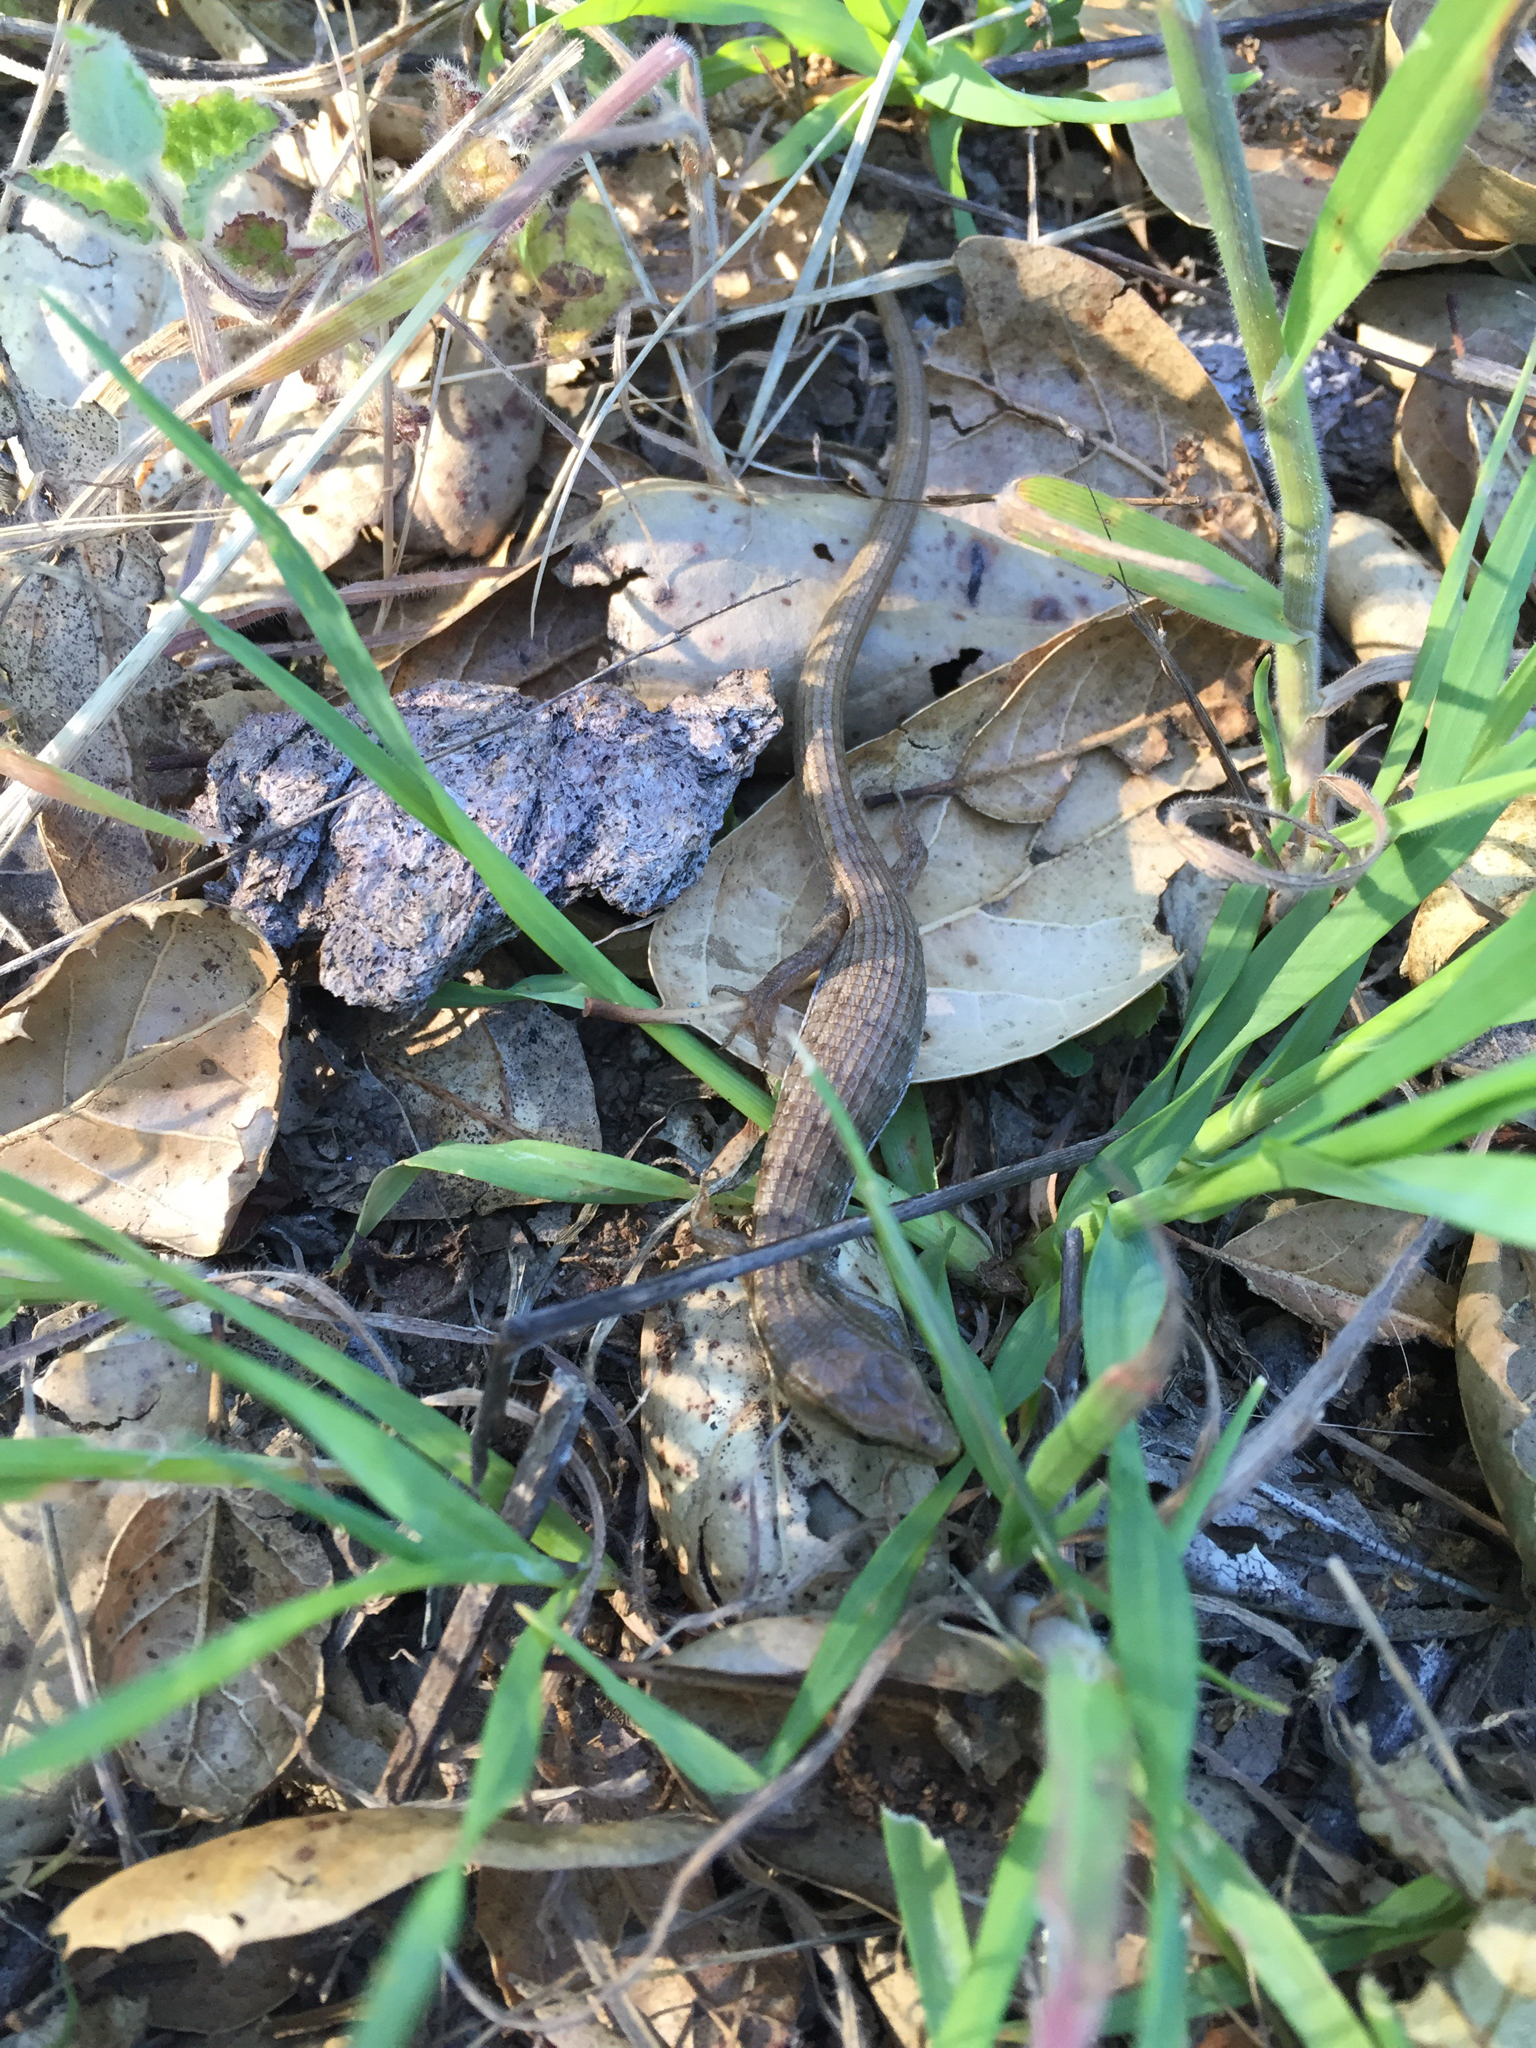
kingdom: Animalia
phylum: Chordata
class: Squamata
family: Anguidae
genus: Elgaria
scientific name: Elgaria multicarinata
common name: Southern alligator lizard
